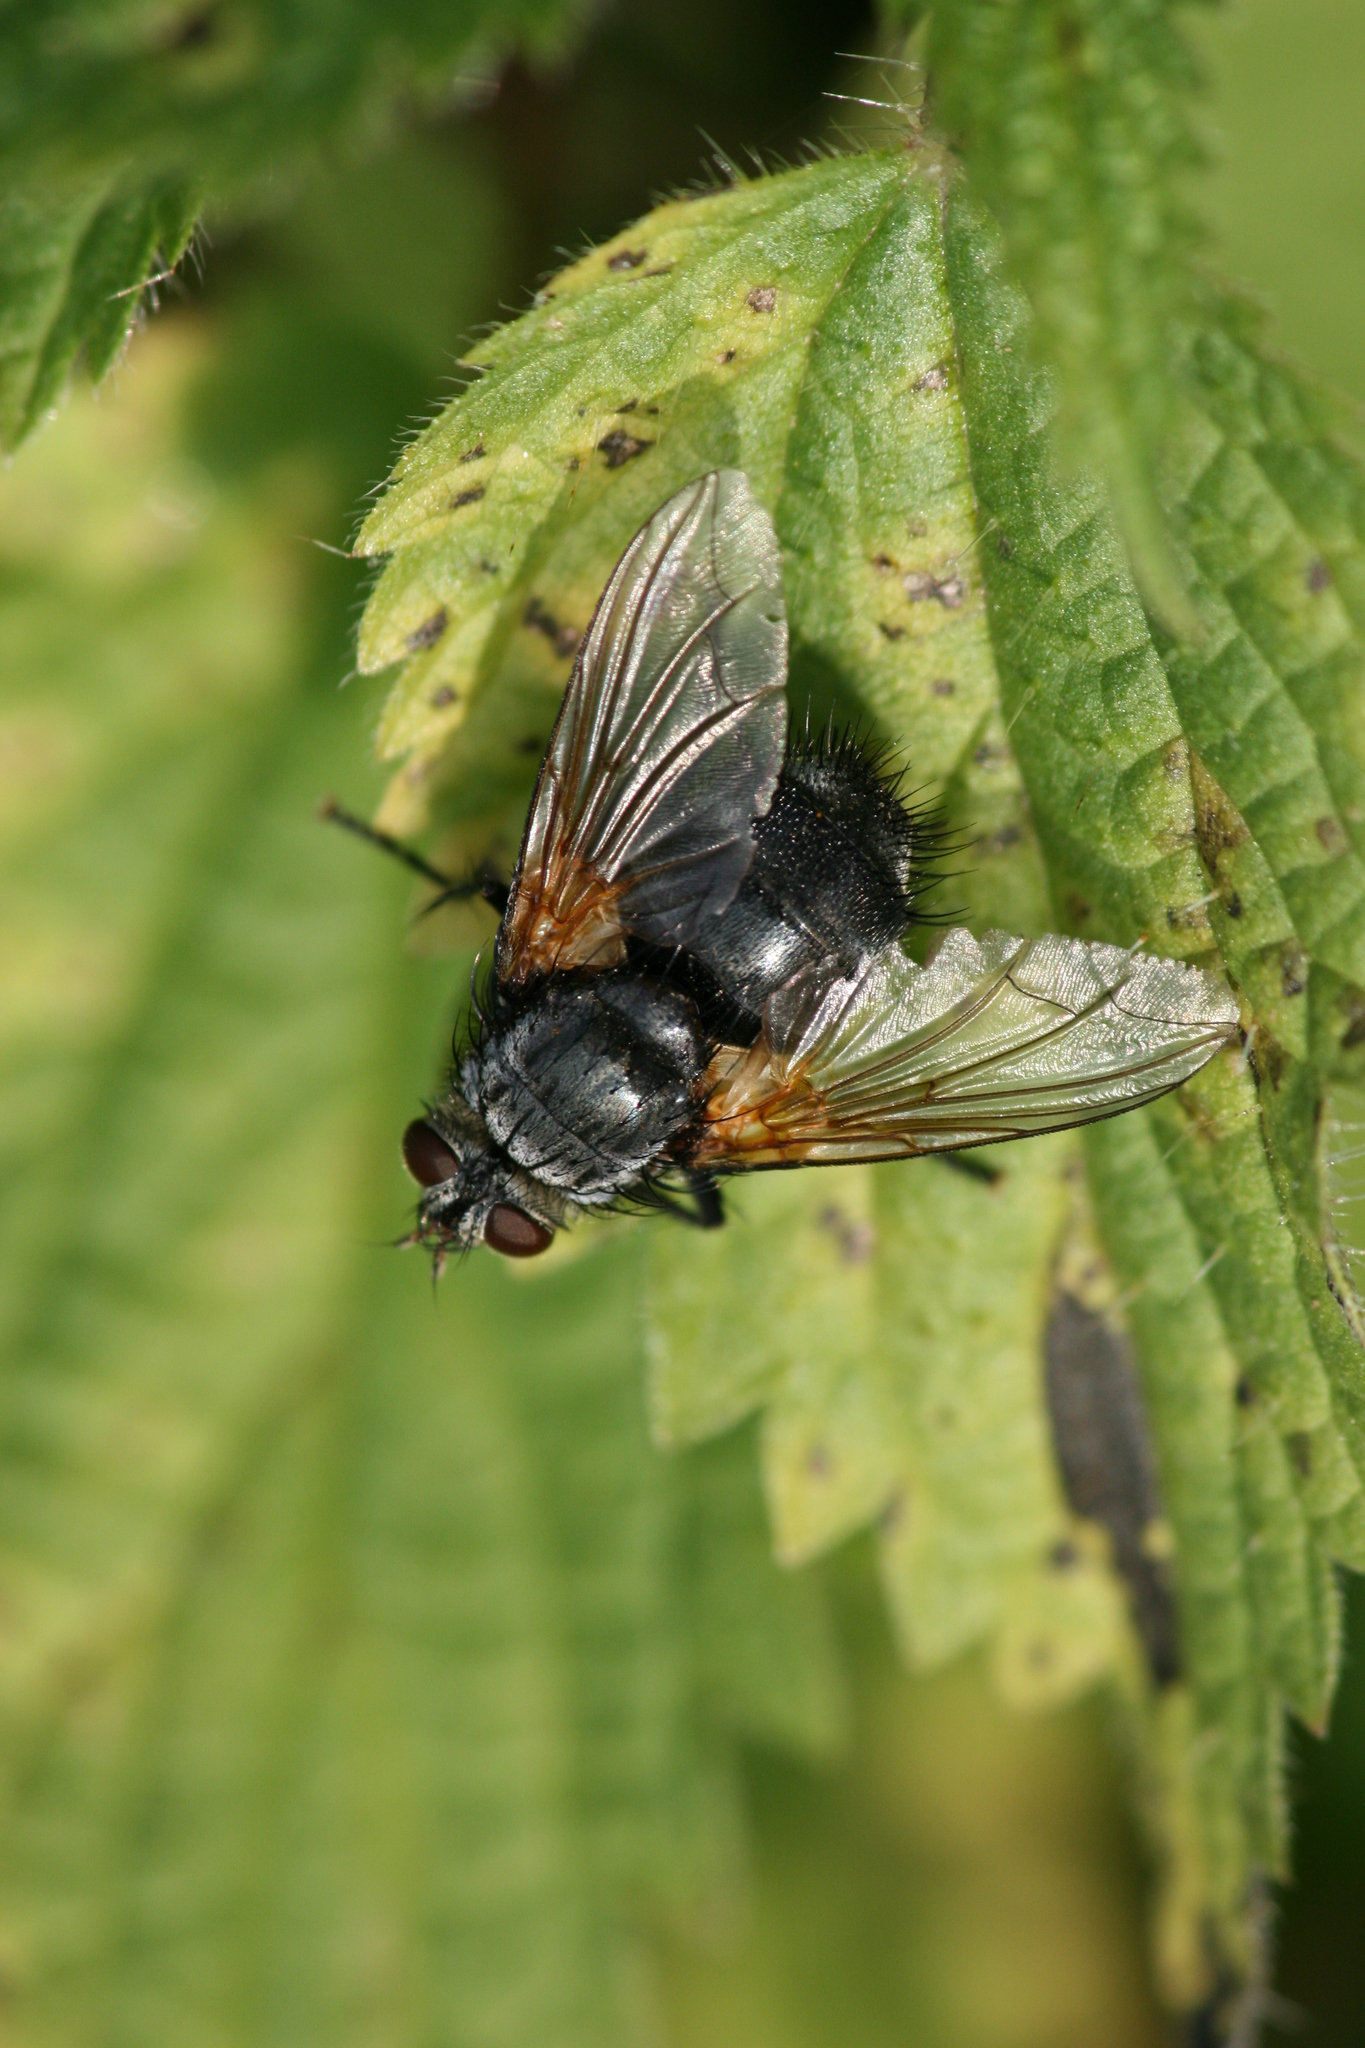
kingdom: Animalia
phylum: Arthropoda
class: Insecta
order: Diptera
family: Tachinidae
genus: Nemoraea
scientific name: Nemoraea pellucida
